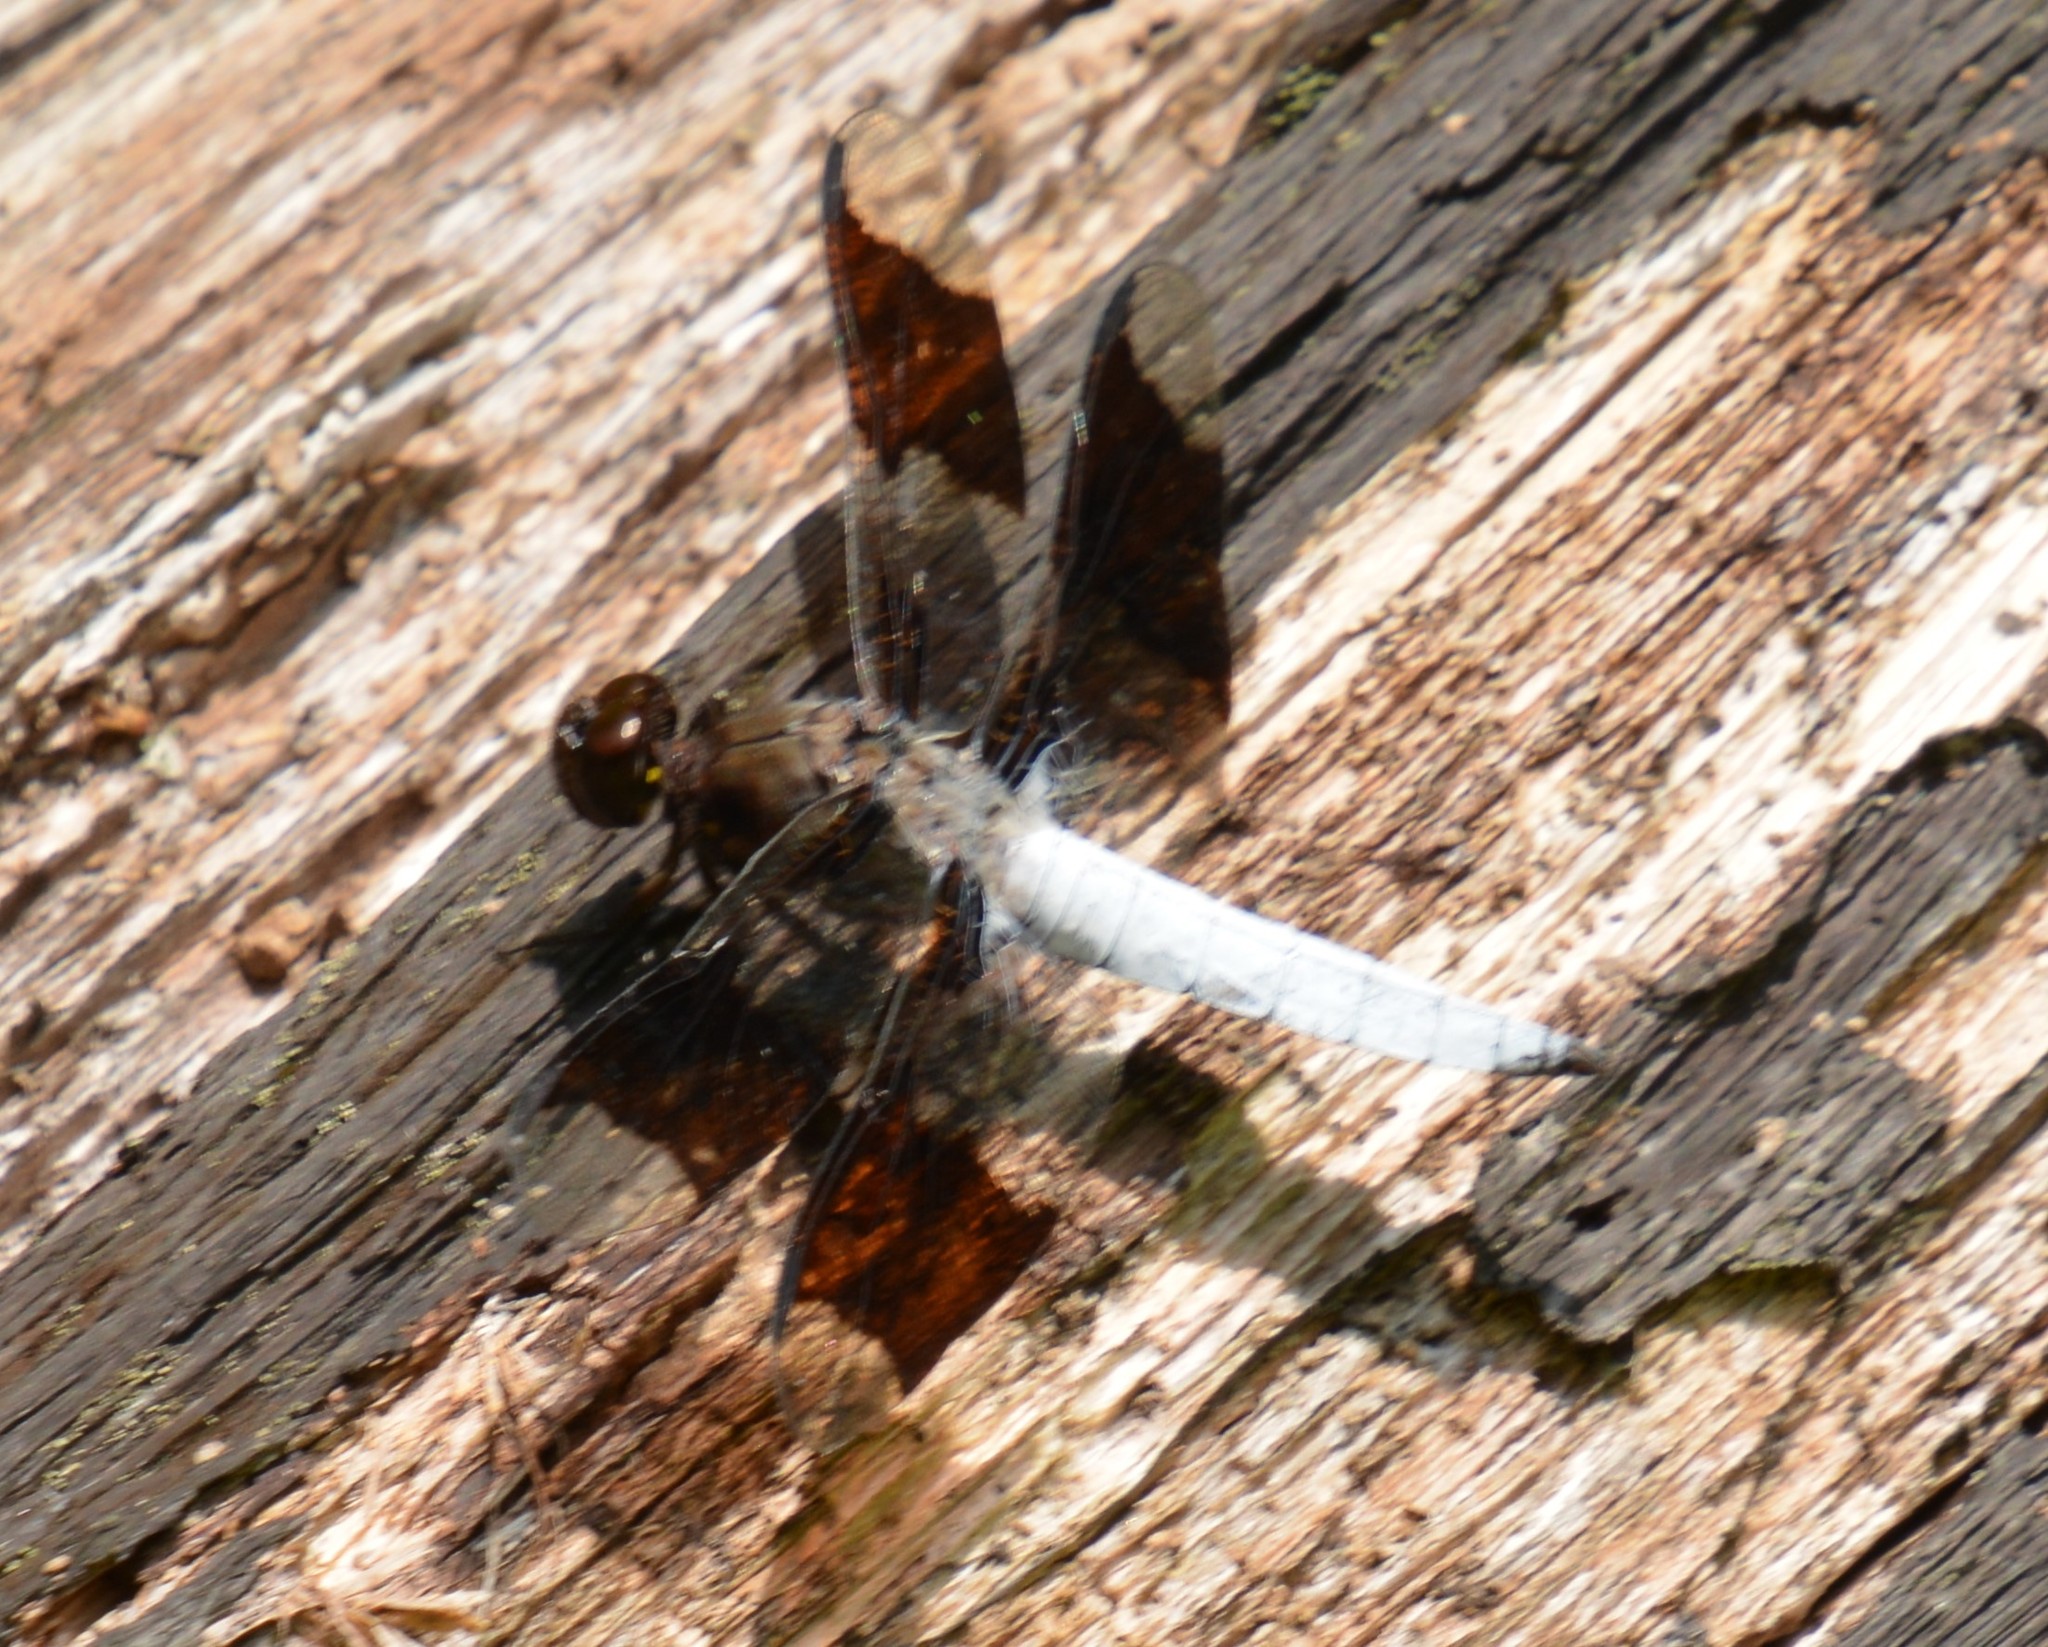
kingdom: Animalia
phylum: Arthropoda
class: Insecta
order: Odonata
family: Libellulidae
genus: Plathemis
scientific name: Plathemis lydia
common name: Common whitetail
